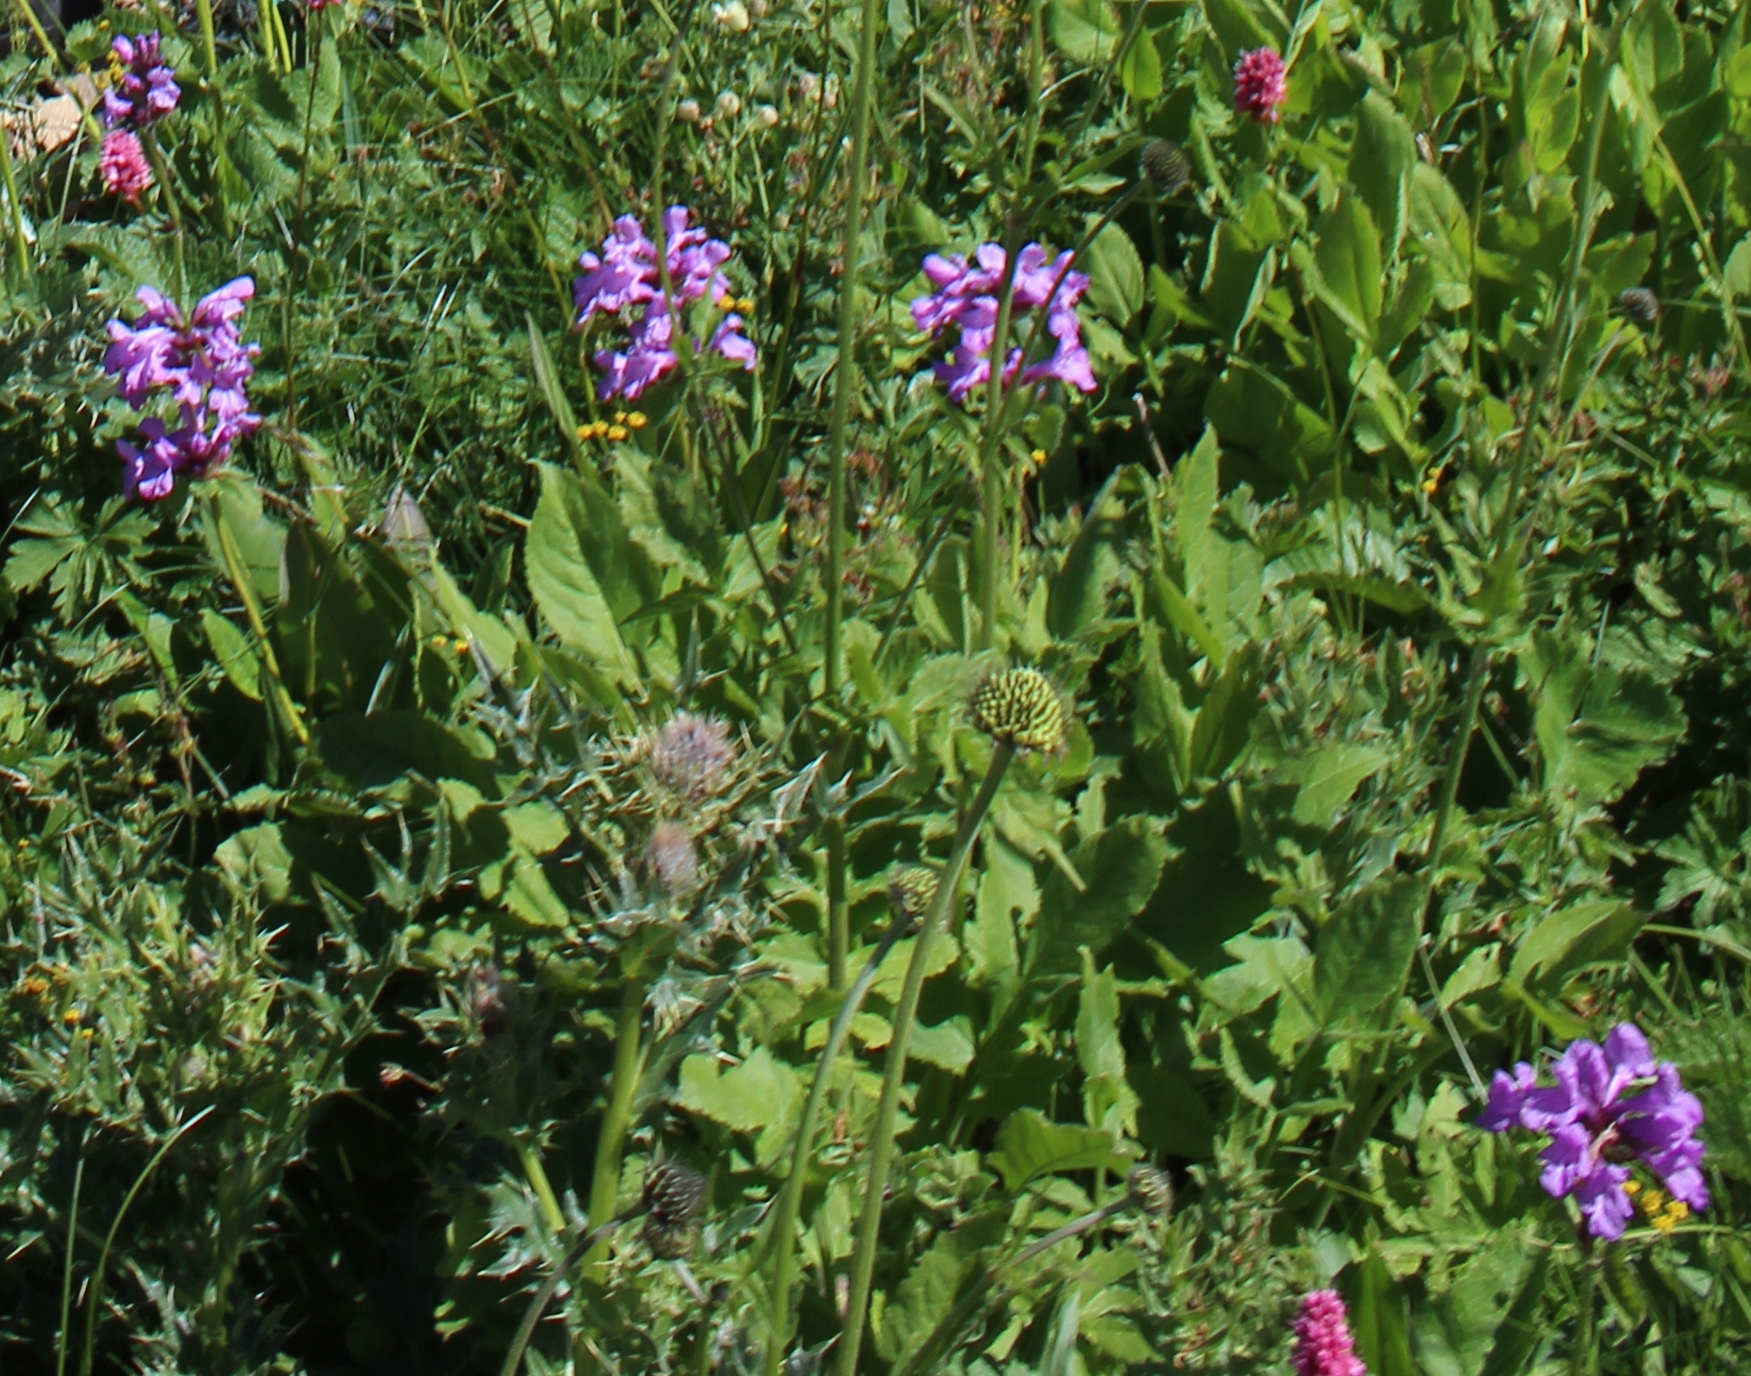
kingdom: Plantae
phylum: Tracheophyta
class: Magnoliopsida
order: Lamiales
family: Lamiaceae
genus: Betonica
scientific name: Betonica macrantha
